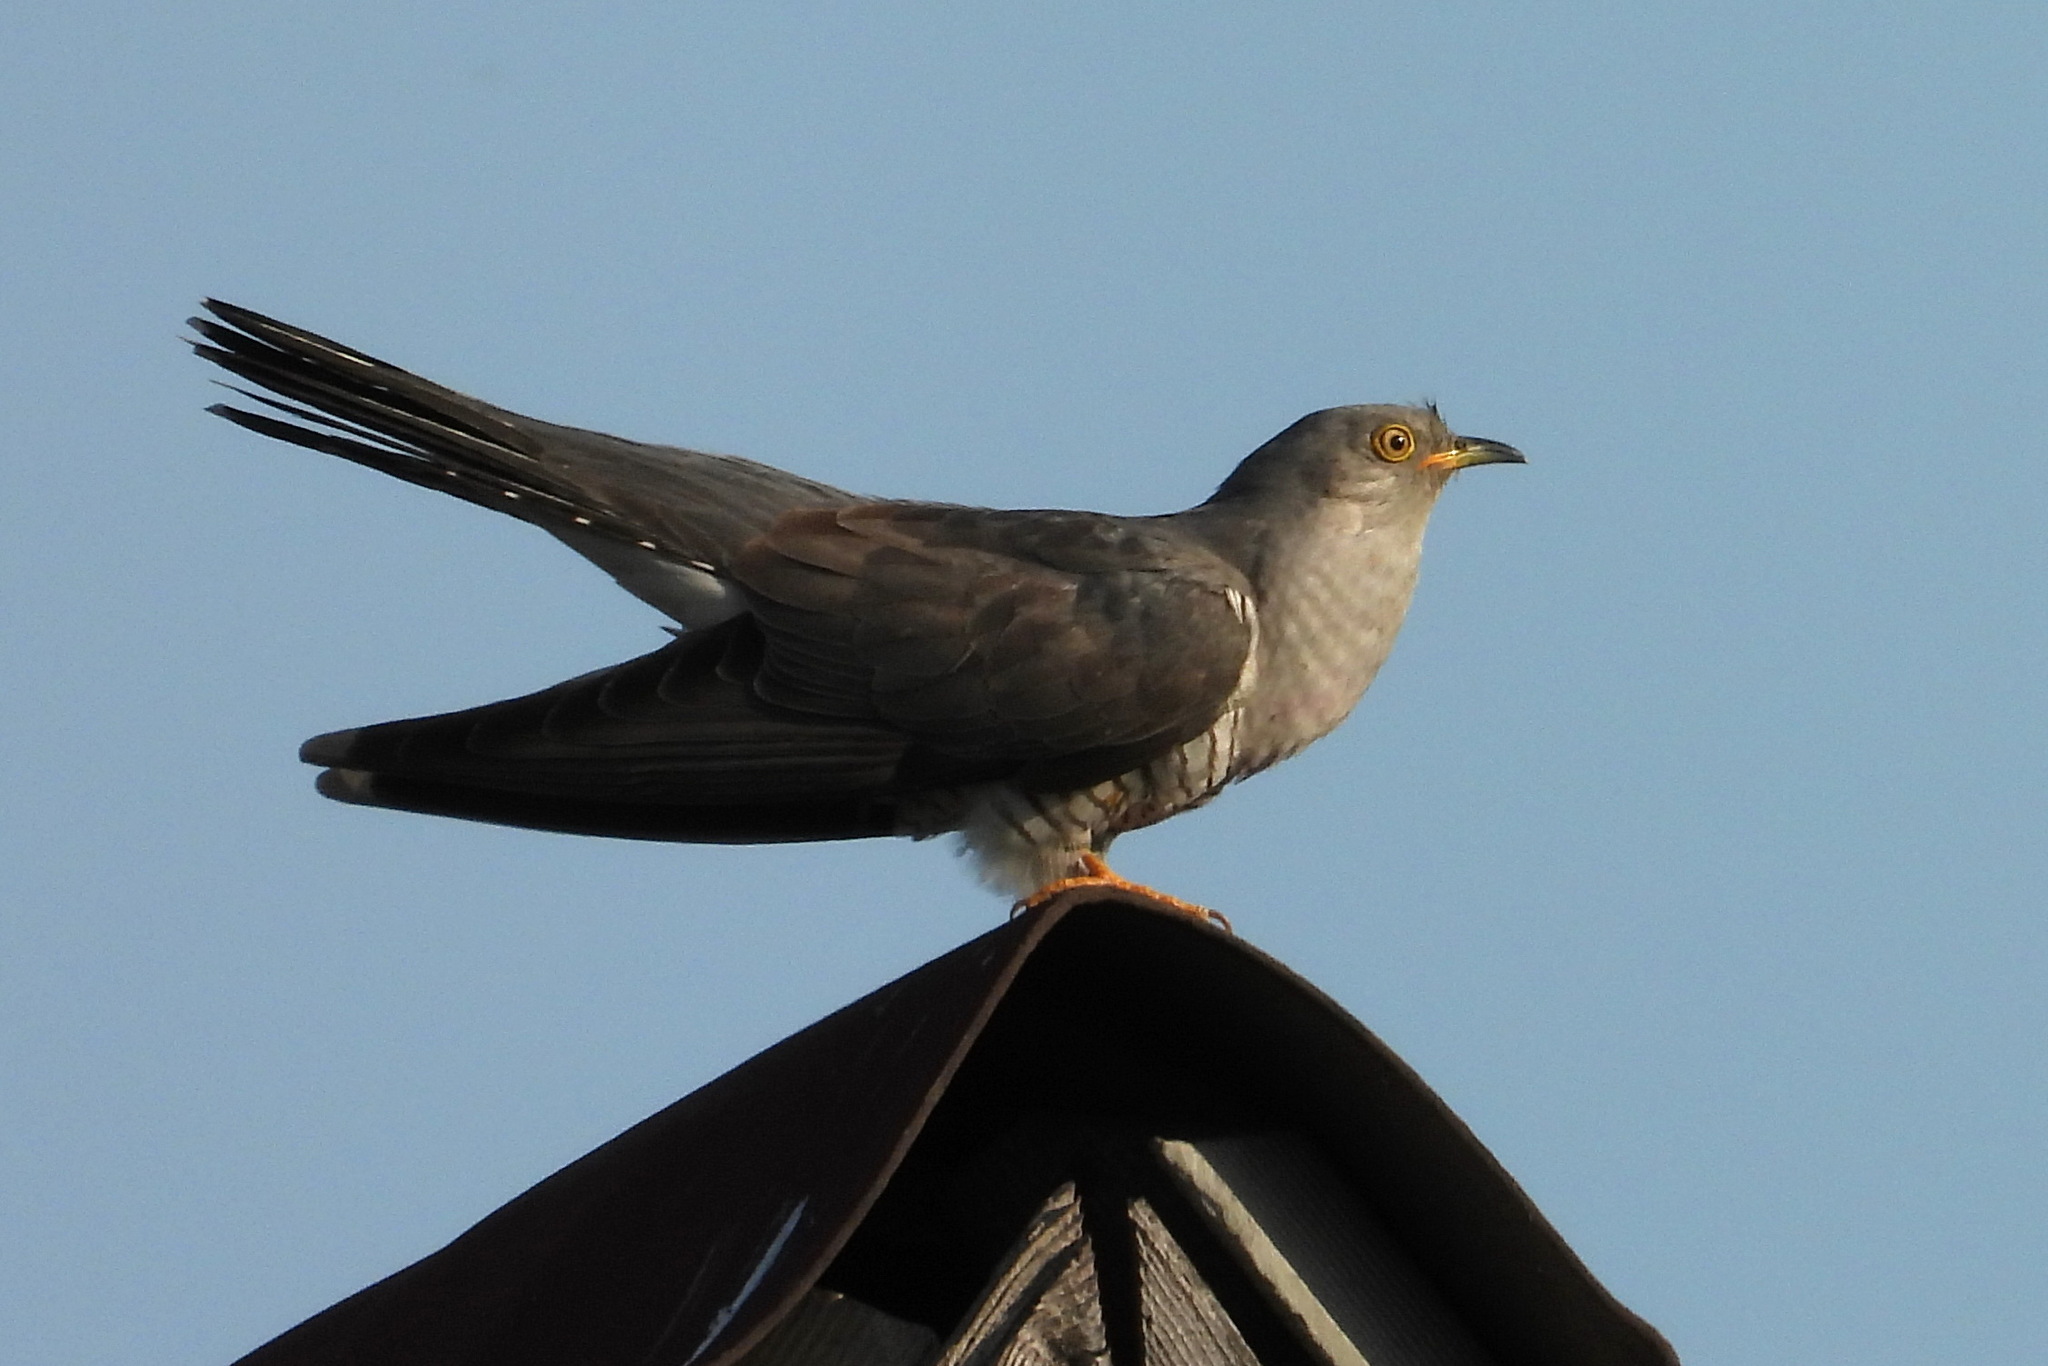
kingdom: Animalia
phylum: Chordata
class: Aves
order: Cuculiformes
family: Cuculidae
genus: Cuculus
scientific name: Cuculus canorus
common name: Common cuckoo
